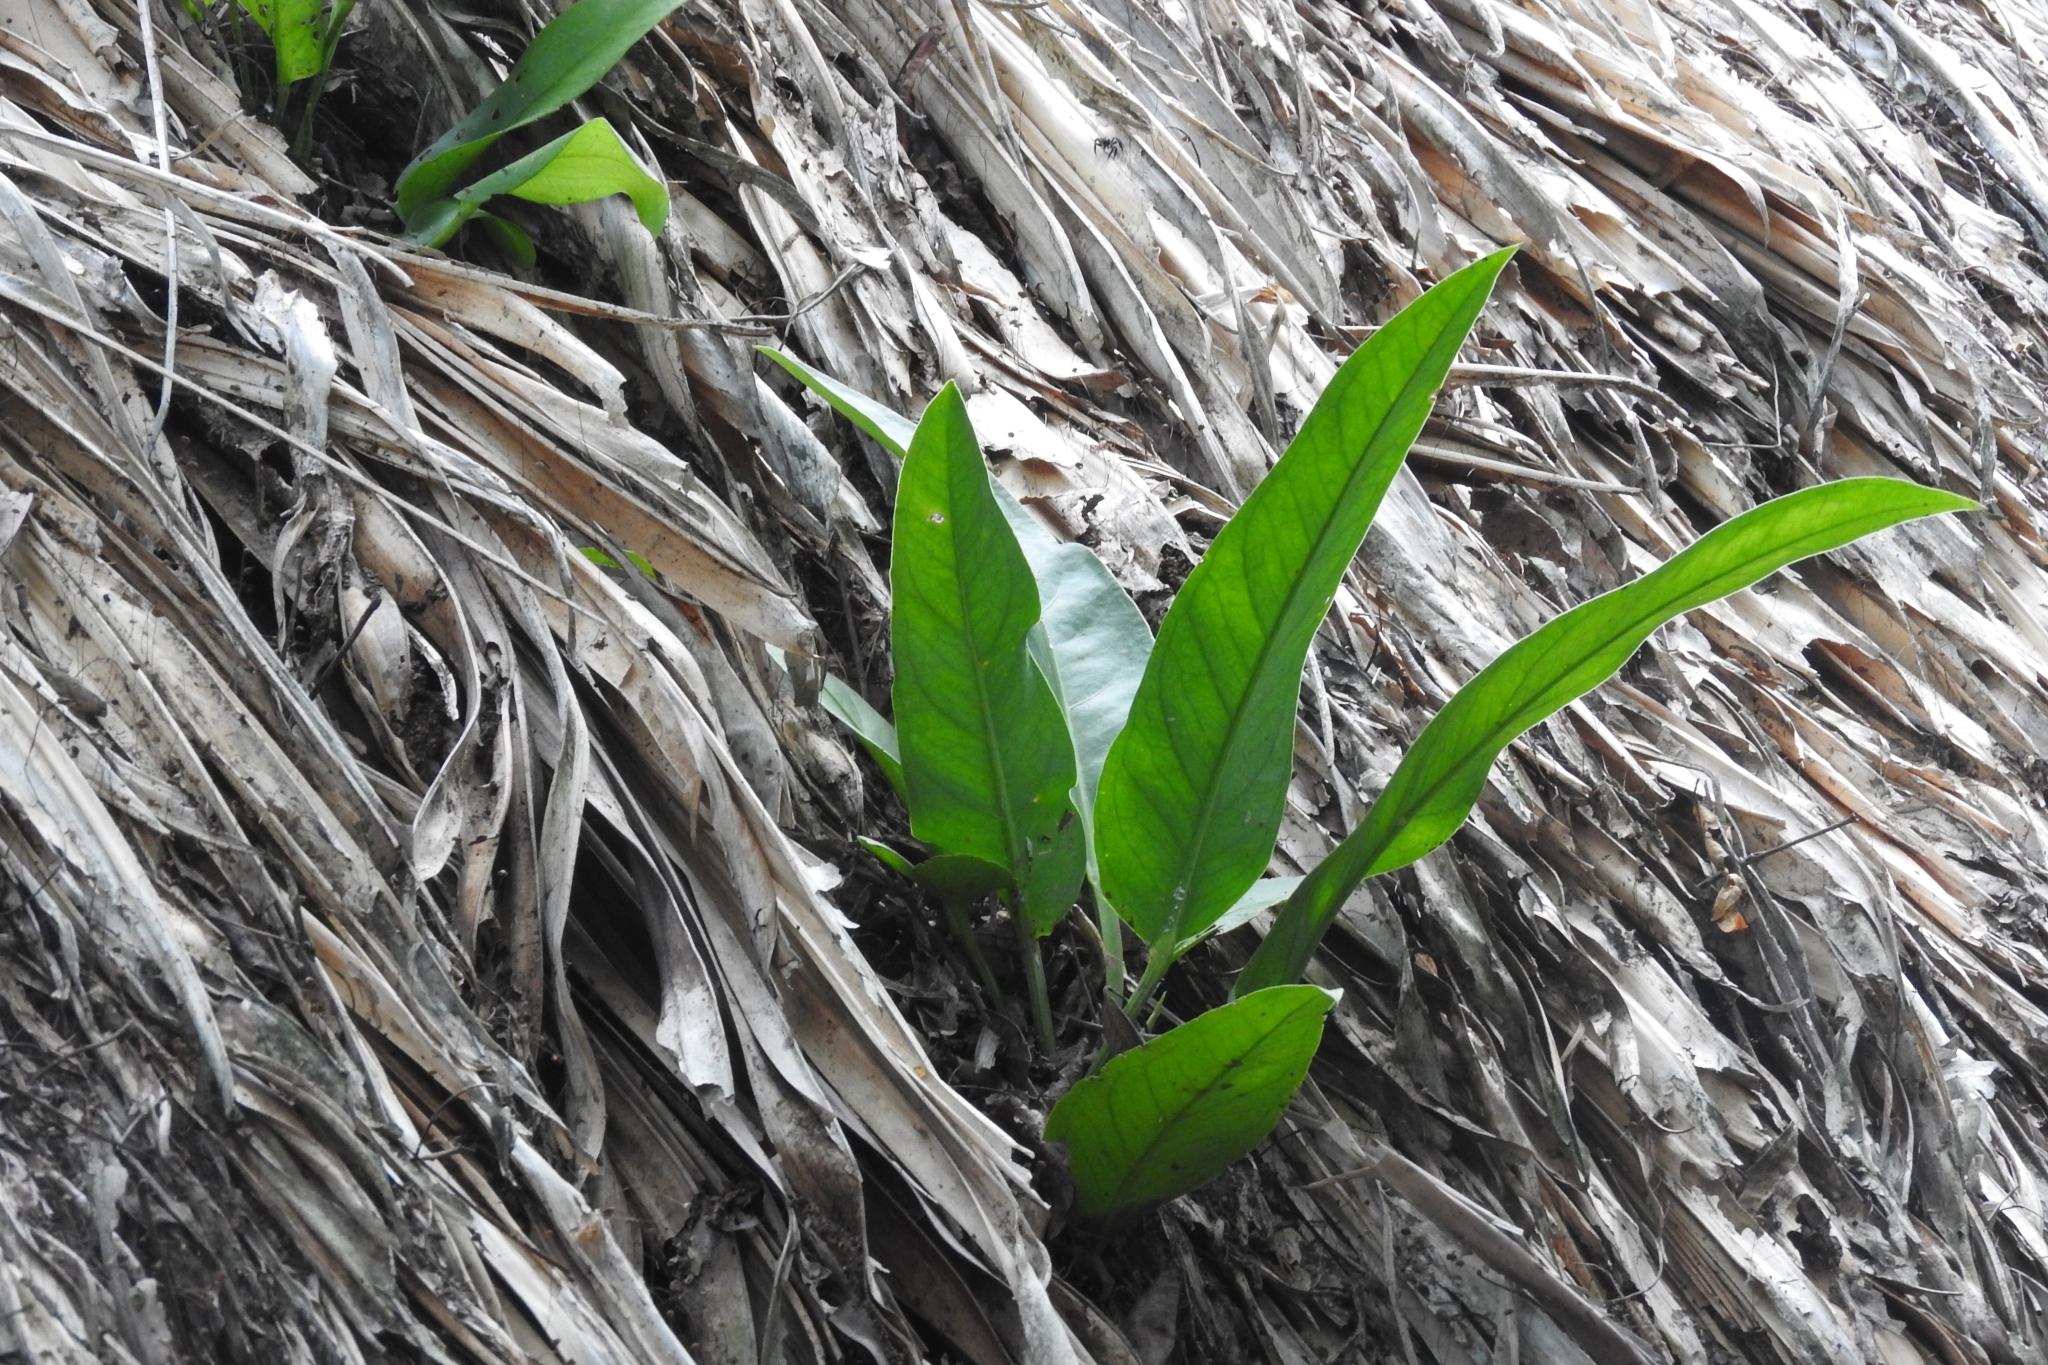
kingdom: Plantae
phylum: Tracheophyta
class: Liliopsida
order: Alismatales
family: Araceae
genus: Anthurium
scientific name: Anthurium schlechtendalii
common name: Laceleaf
